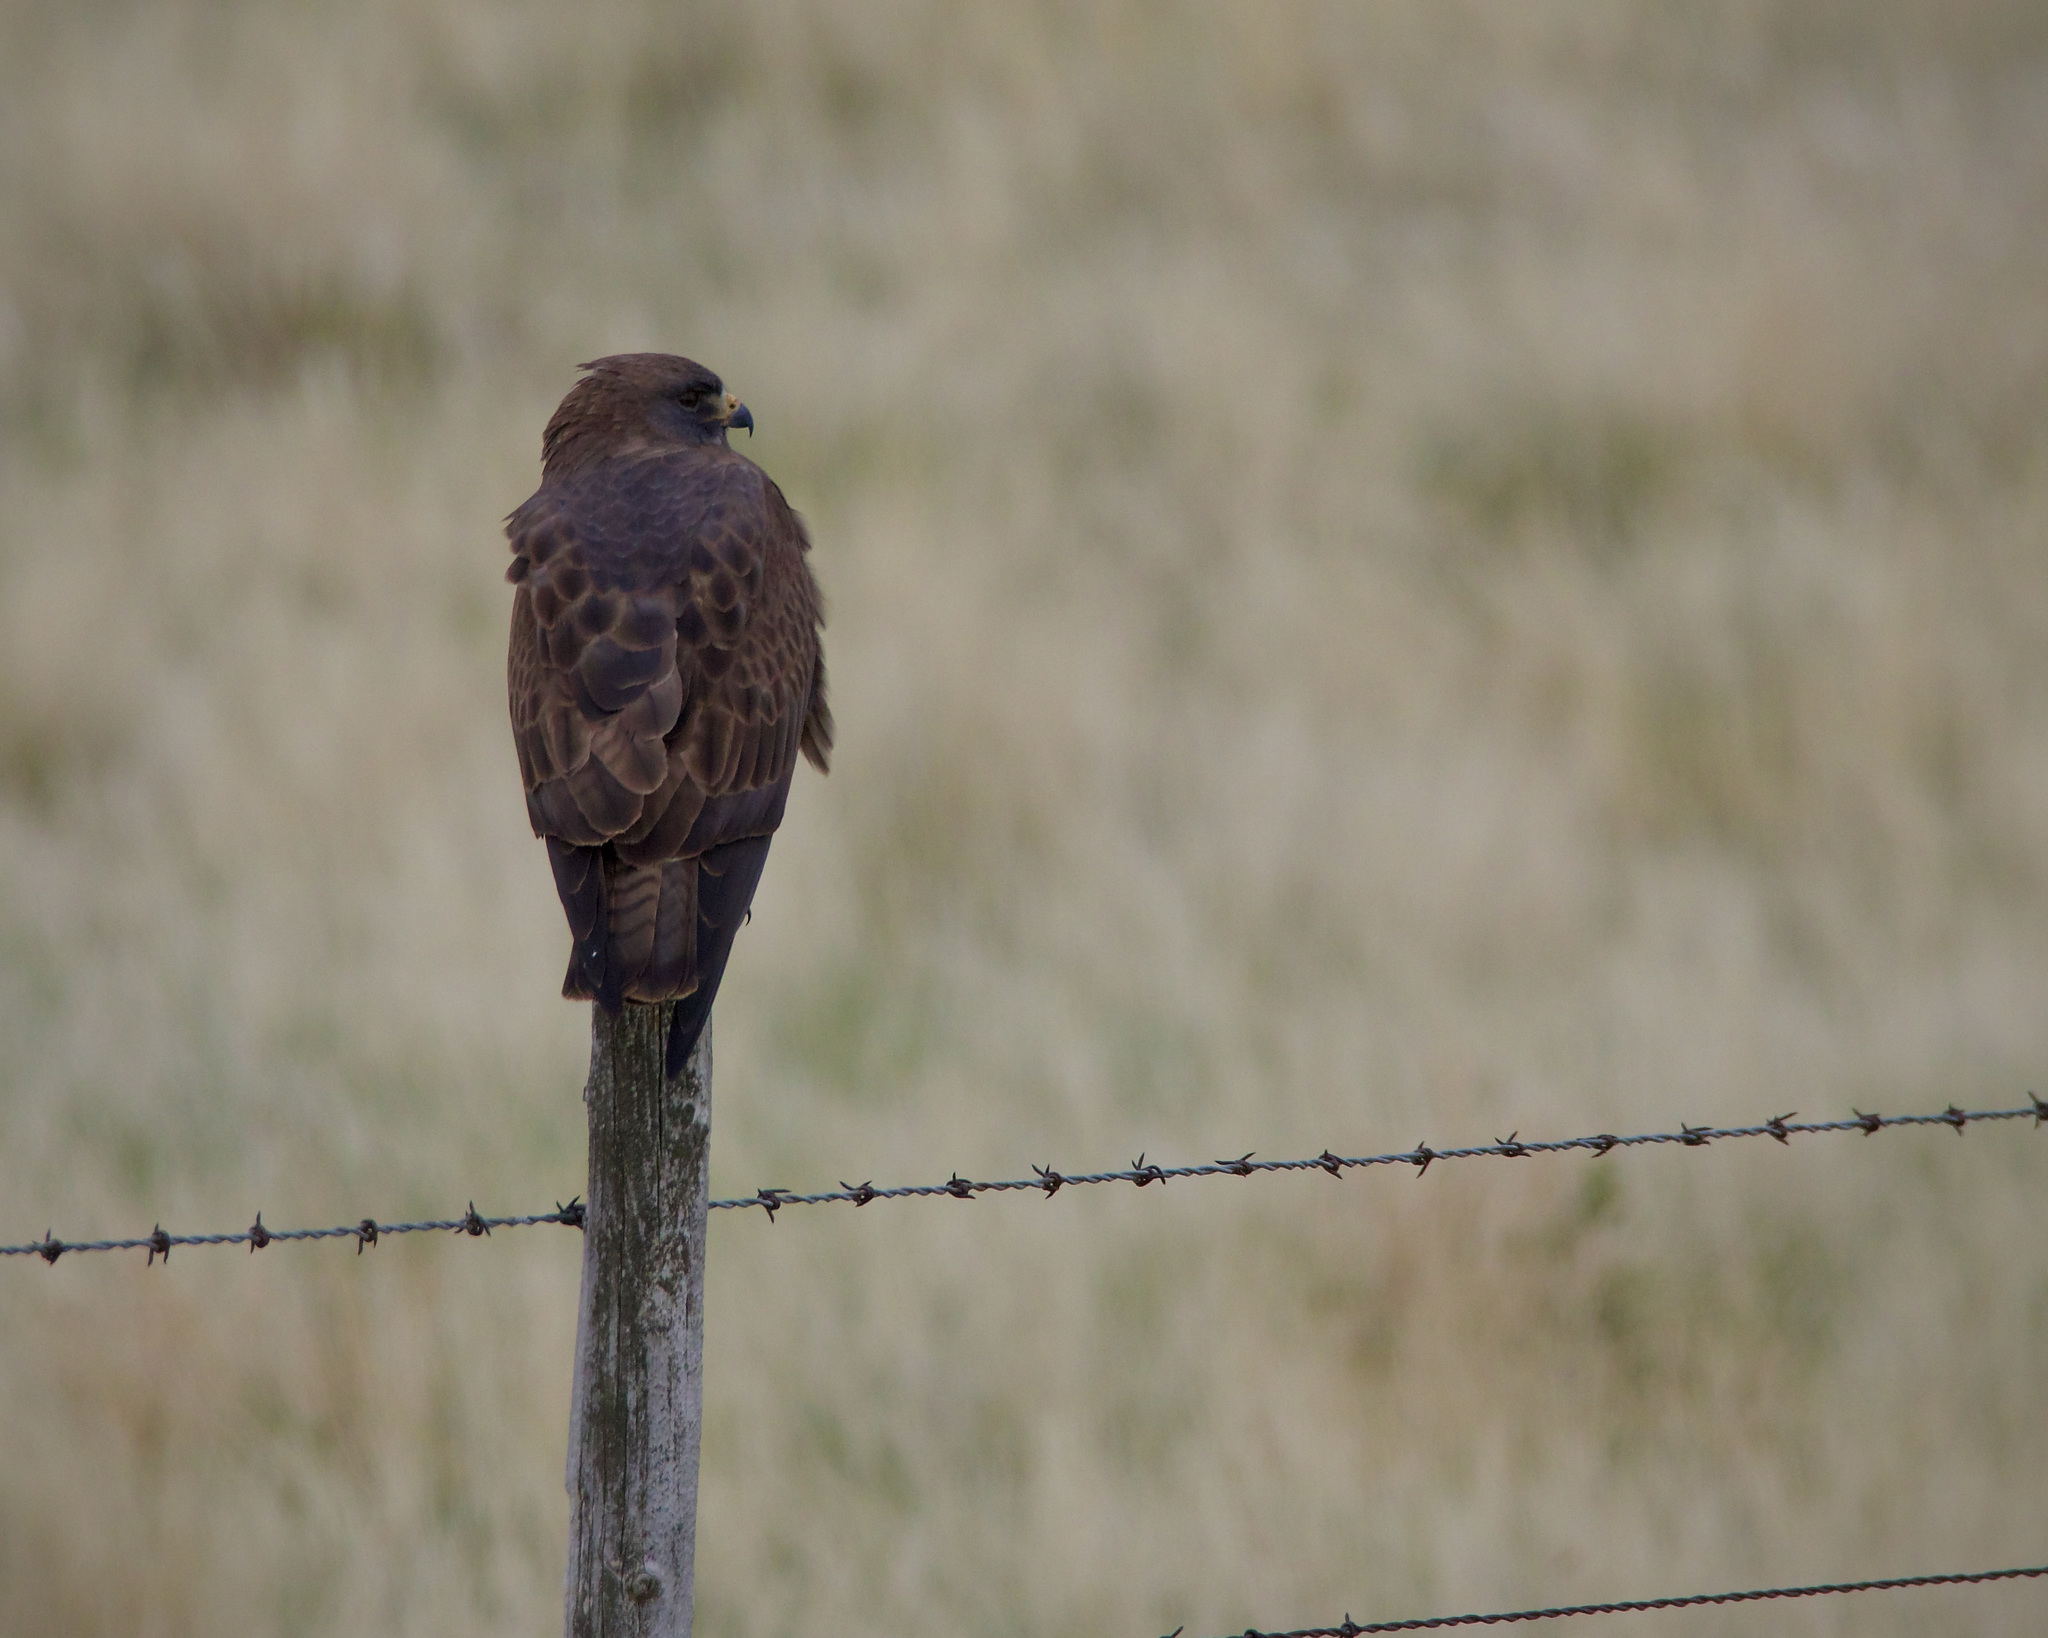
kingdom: Animalia
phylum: Chordata
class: Aves
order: Accipitriformes
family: Accipitridae
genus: Buteo
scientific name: Buteo swainsoni
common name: Swainson's hawk
